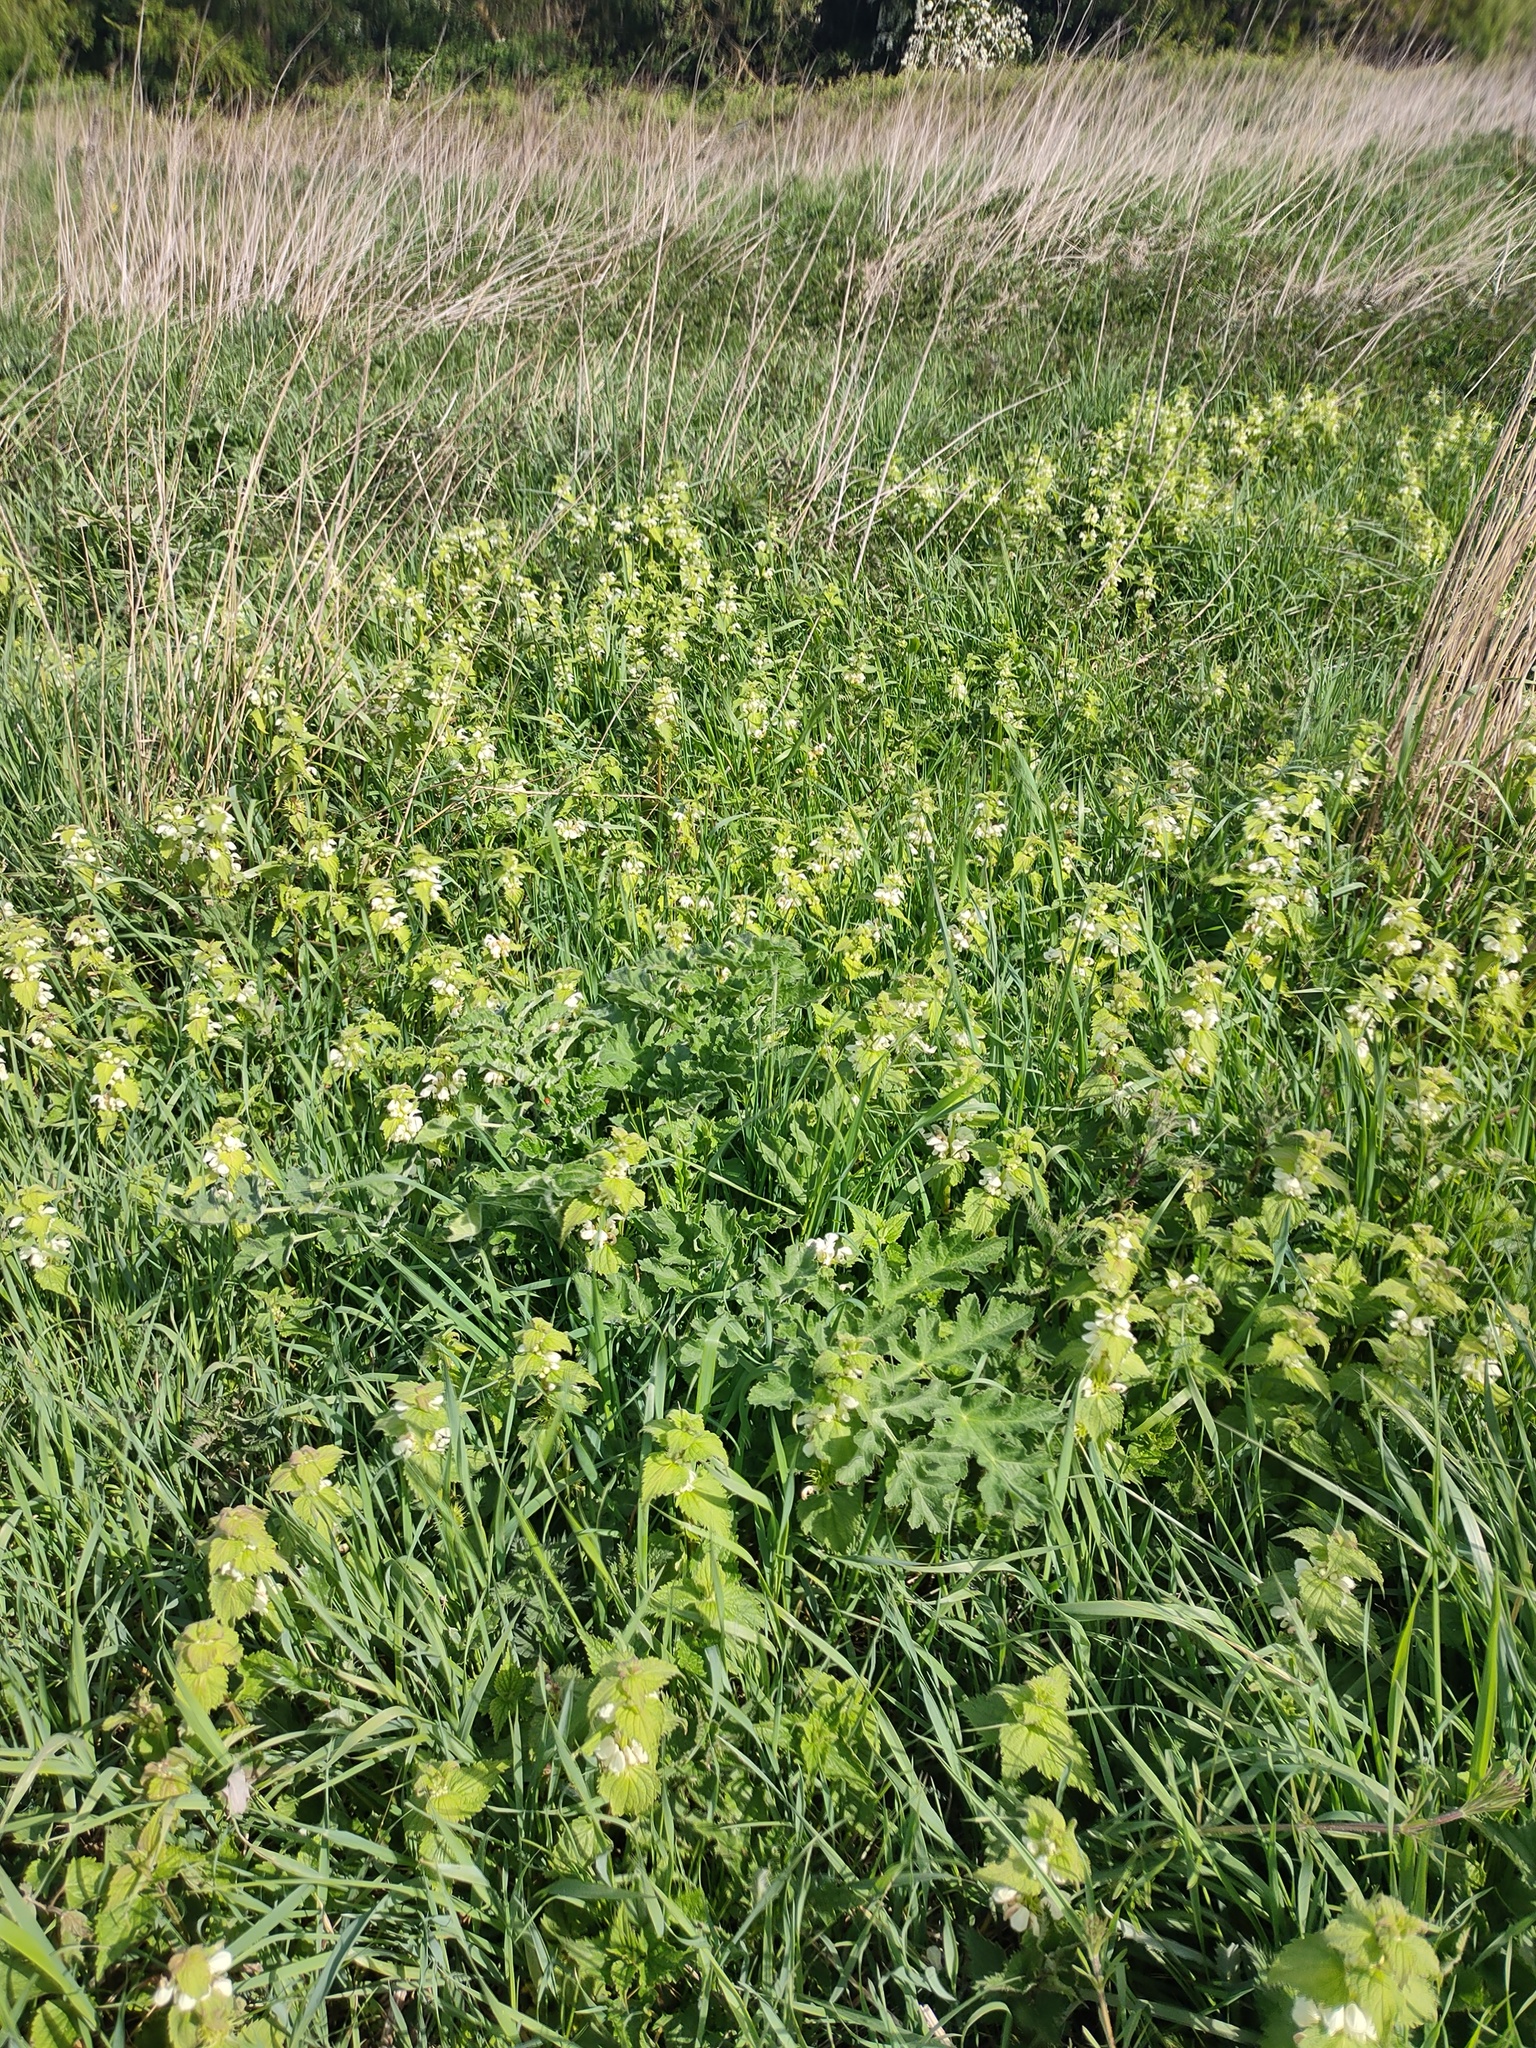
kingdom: Plantae
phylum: Tracheophyta
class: Magnoliopsida
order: Lamiales
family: Lamiaceae
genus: Lamium
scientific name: Lamium album
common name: White dead-nettle
